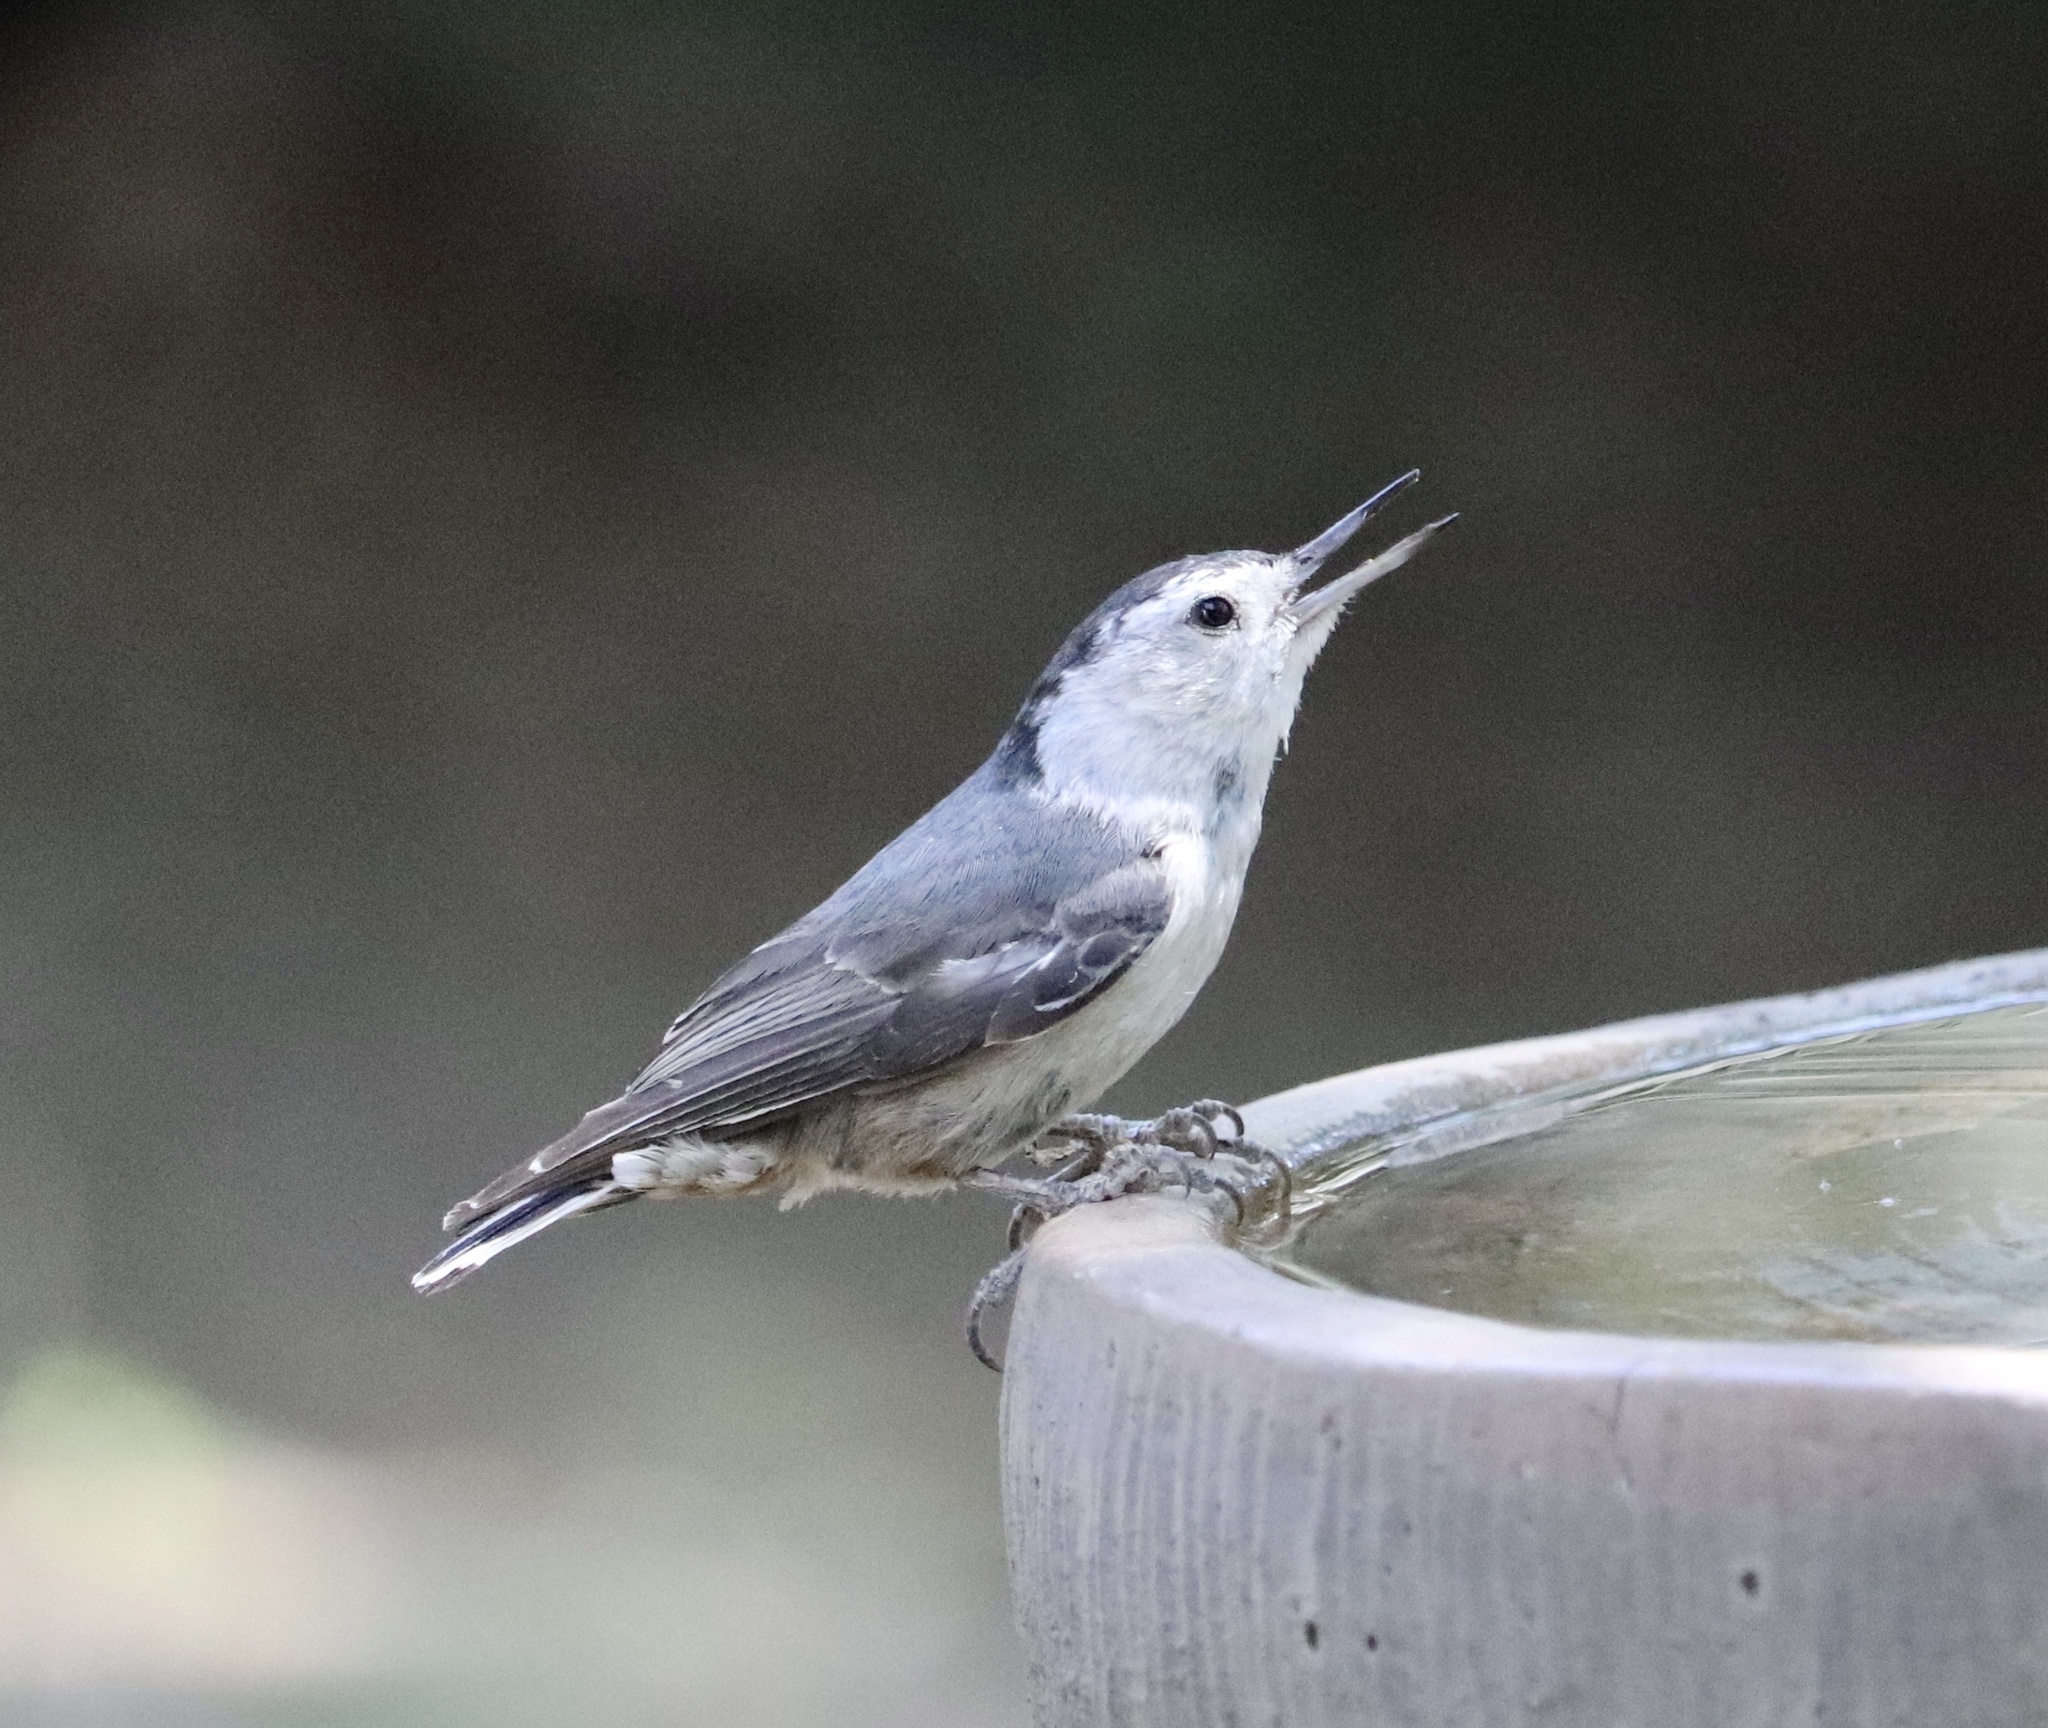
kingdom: Animalia
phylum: Chordata
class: Aves
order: Passeriformes
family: Sittidae
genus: Sitta
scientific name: Sitta carolinensis
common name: White-breasted nuthatch
